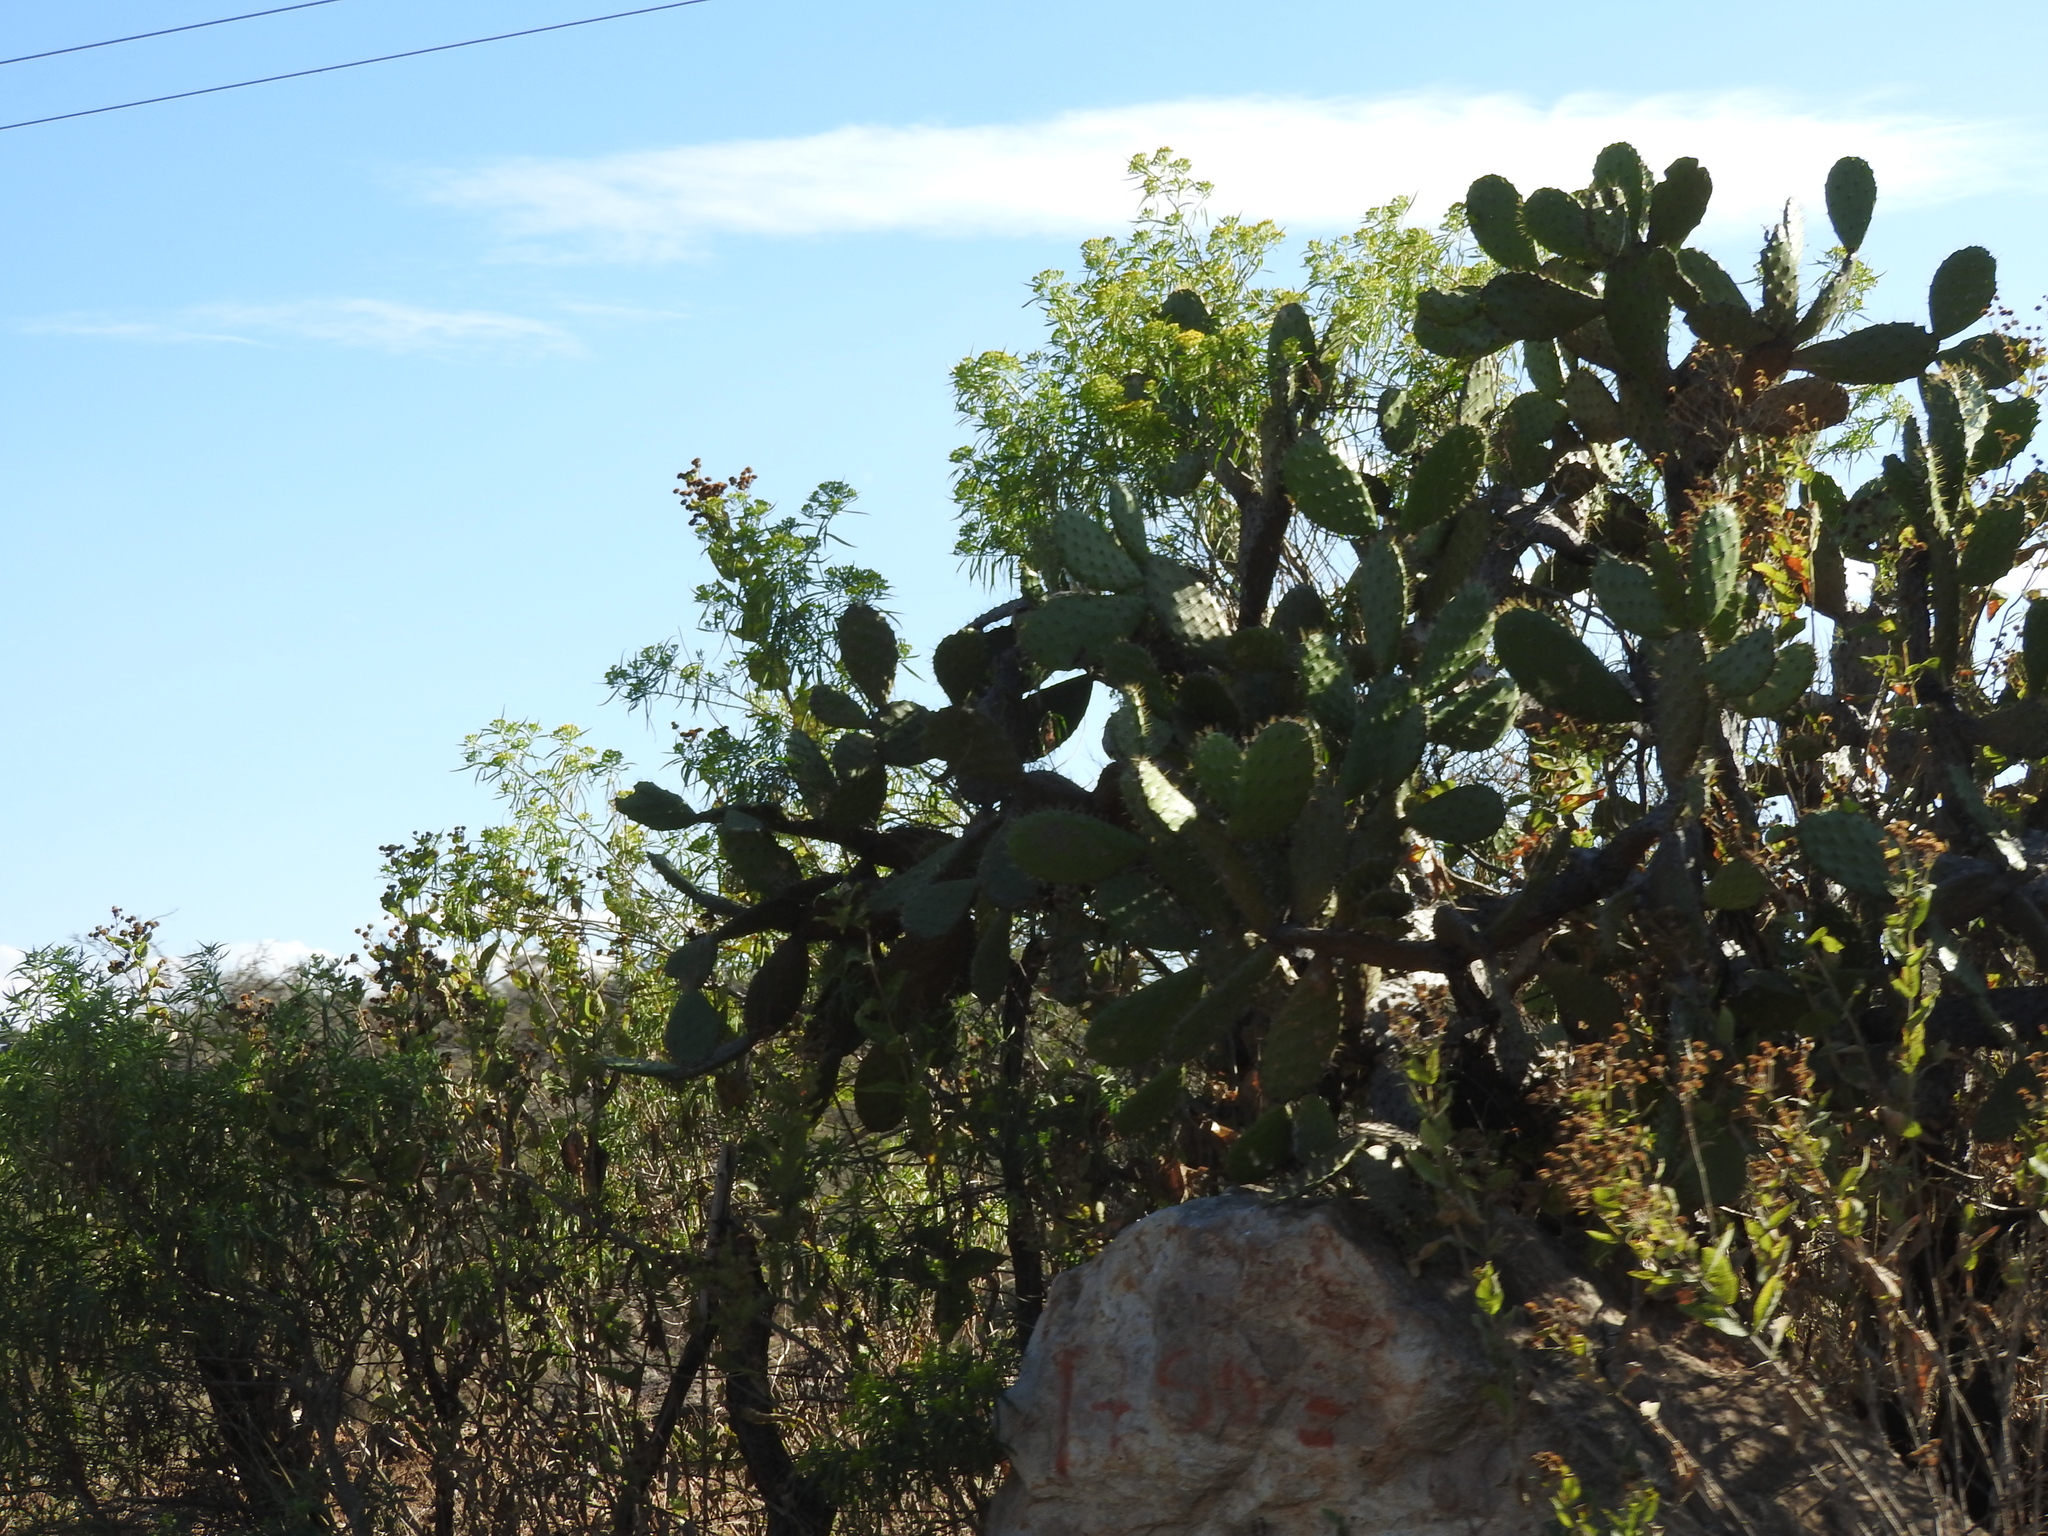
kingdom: Plantae
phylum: Tracheophyta
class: Magnoliopsida
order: Caryophyllales
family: Cactaceae
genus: Opuntia
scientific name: Opuntia jaliscana
